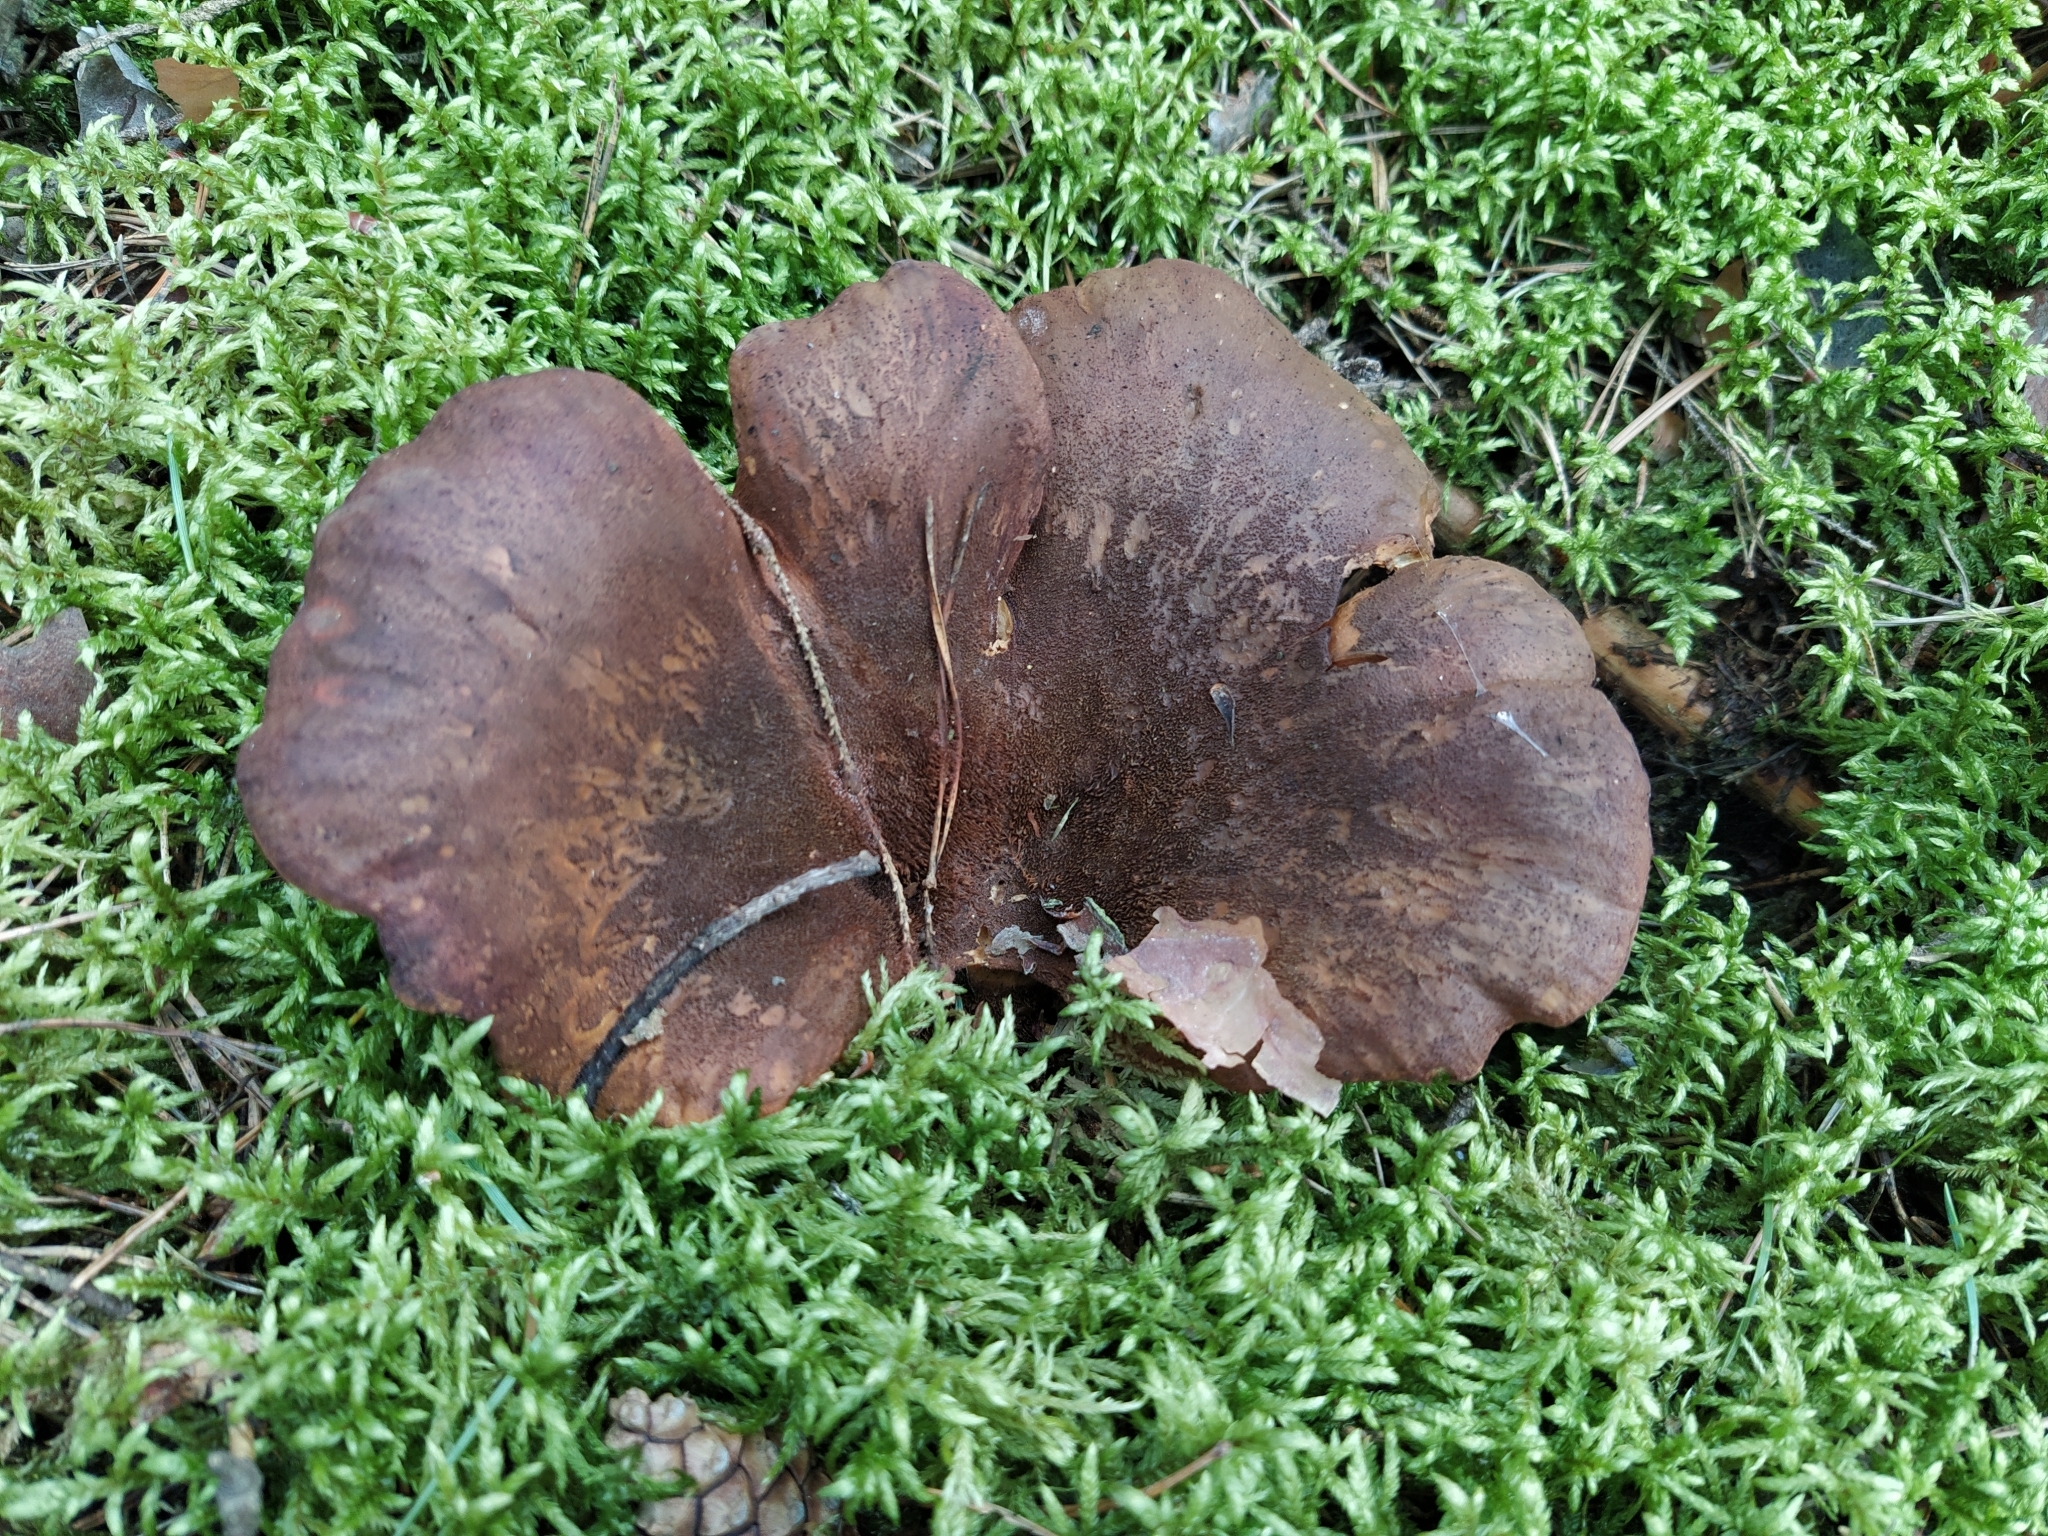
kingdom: Fungi
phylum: Basidiomycota
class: Agaricomycetes
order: Boletales
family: Tapinellaceae
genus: Tapinella
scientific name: Tapinella atrotomentosa
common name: Velvet rollrim
